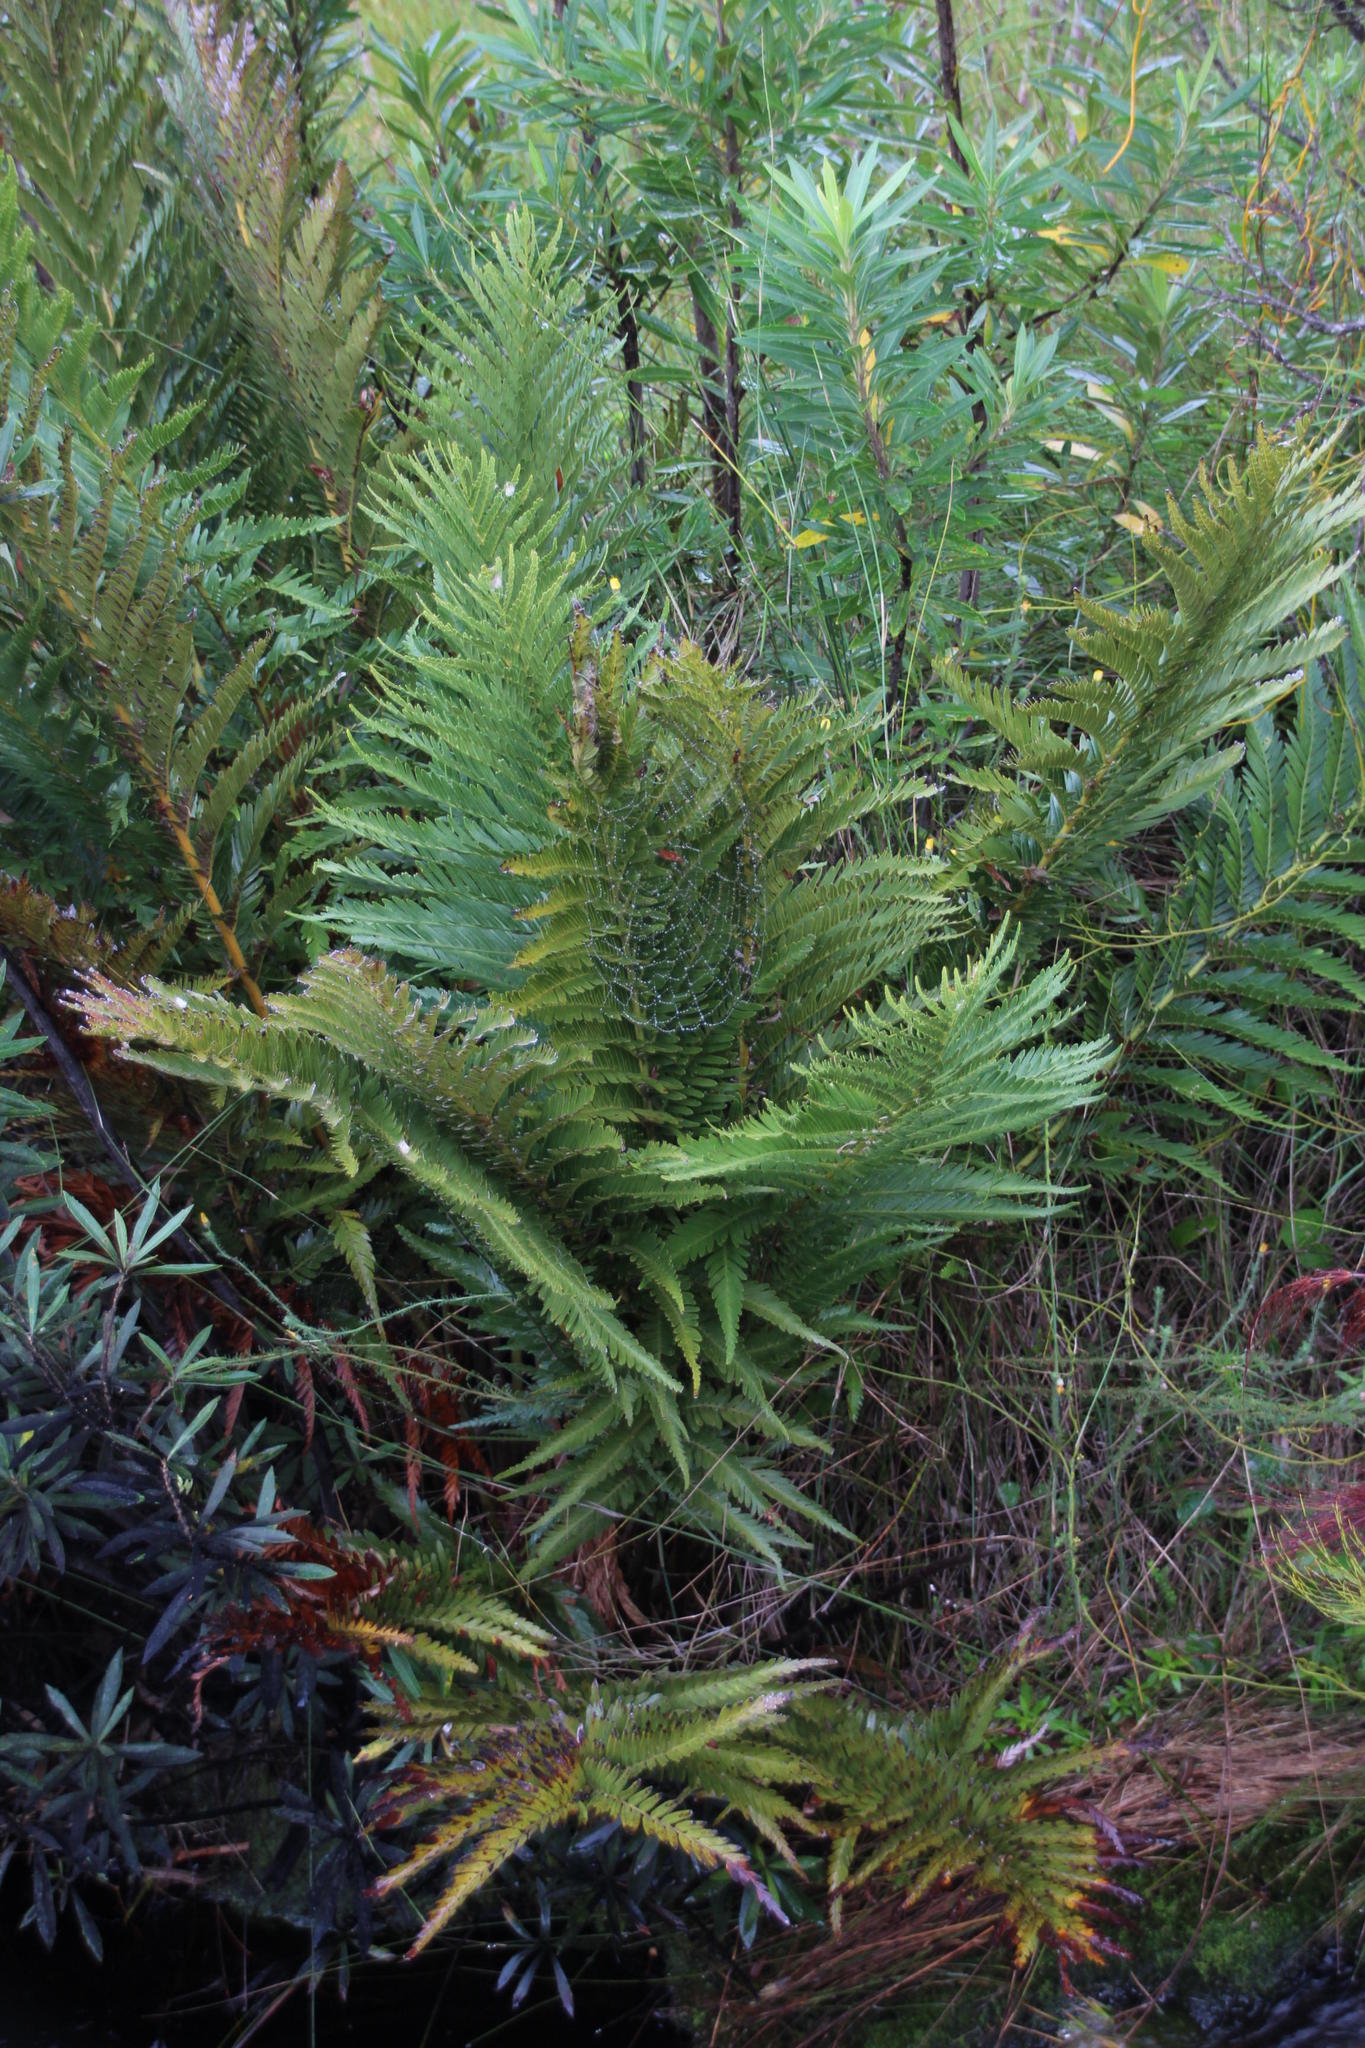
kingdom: Plantae
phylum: Tracheophyta
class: Polypodiopsida
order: Osmundales
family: Osmundaceae
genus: Todea
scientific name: Todea barbara
